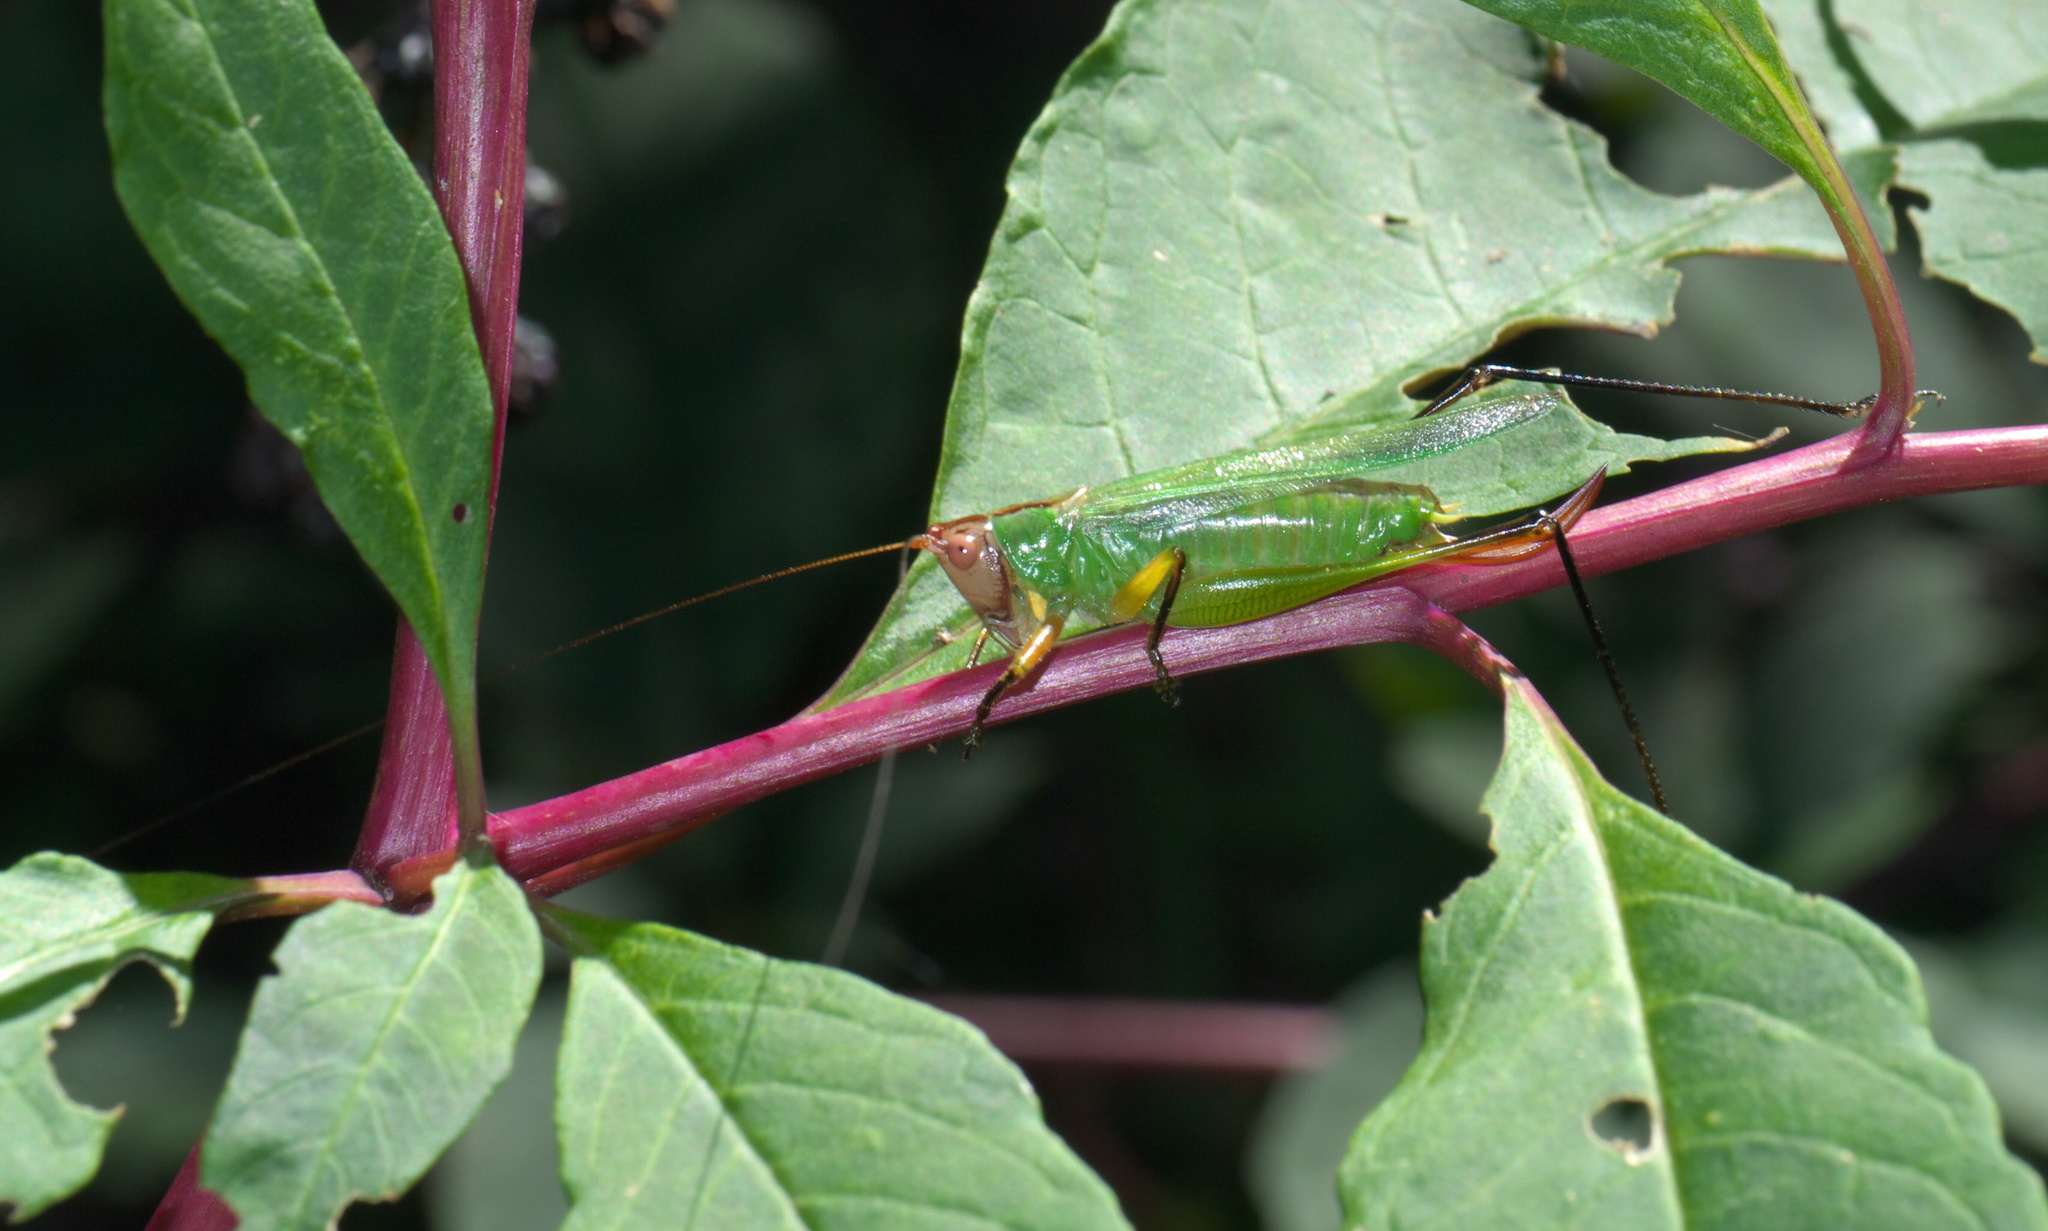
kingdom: Animalia
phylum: Arthropoda
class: Insecta
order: Orthoptera
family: Tettigoniidae
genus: Orchelimum
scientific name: Orchelimum nigripes
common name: Black-legged meadow katydid
